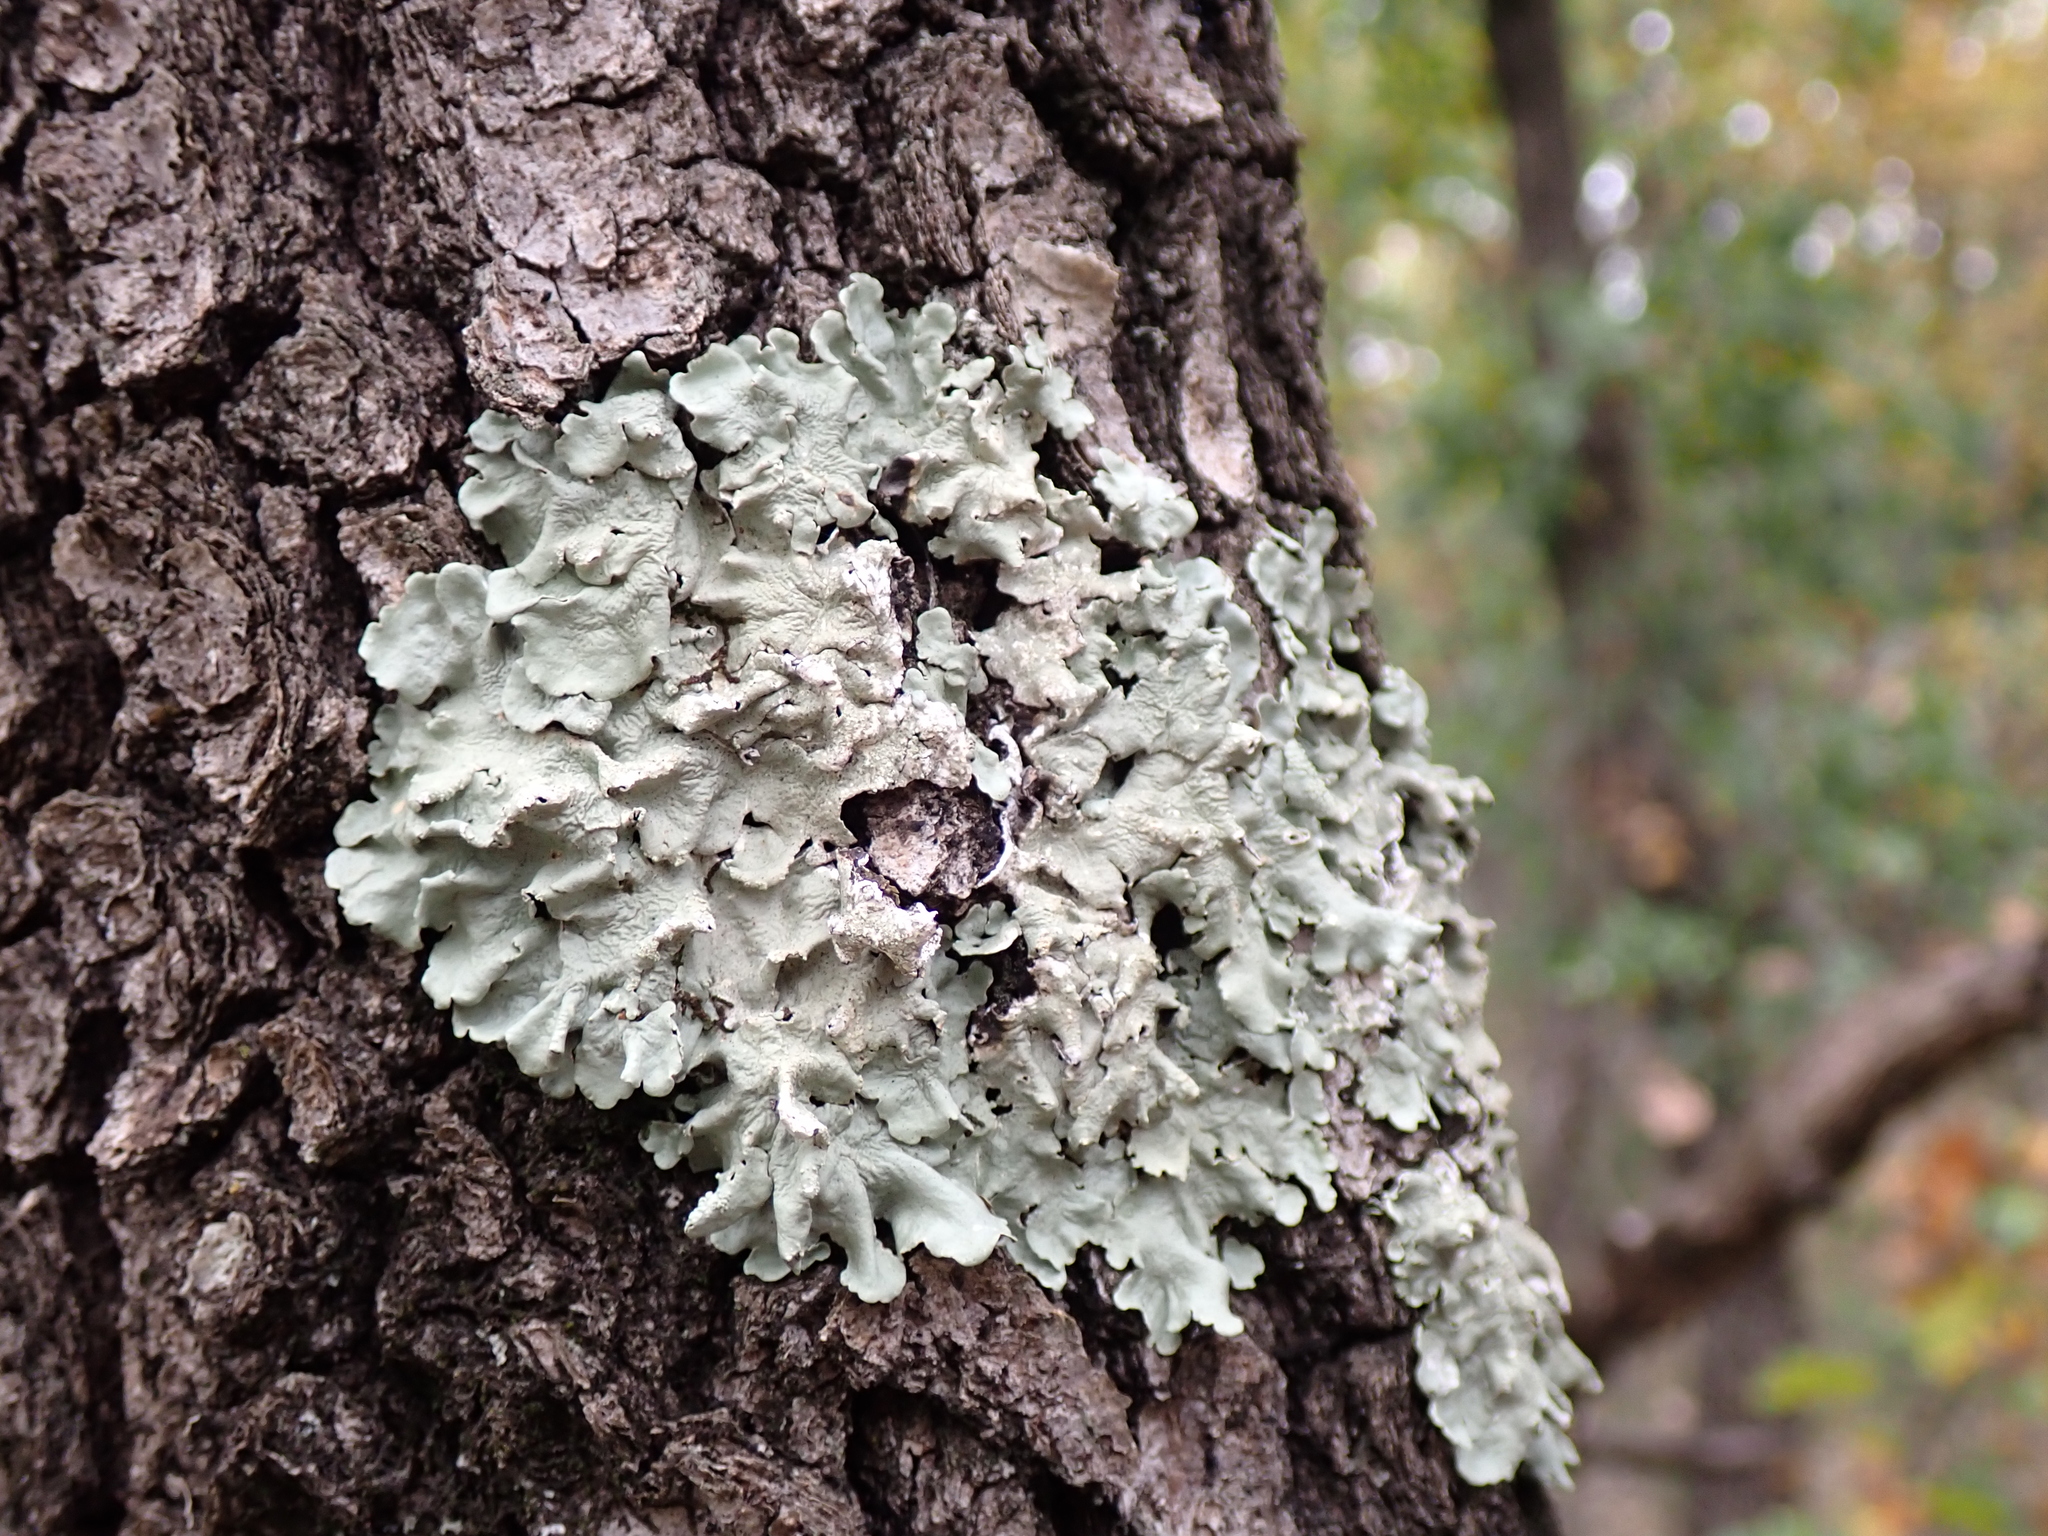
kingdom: Fungi
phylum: Ascomycota
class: Lecanoromycetes
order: Lecanorales
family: Parmeliaceae
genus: Flavoparmelia
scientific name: Flavoparmelia caperata
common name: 40-mile per hour lichen
